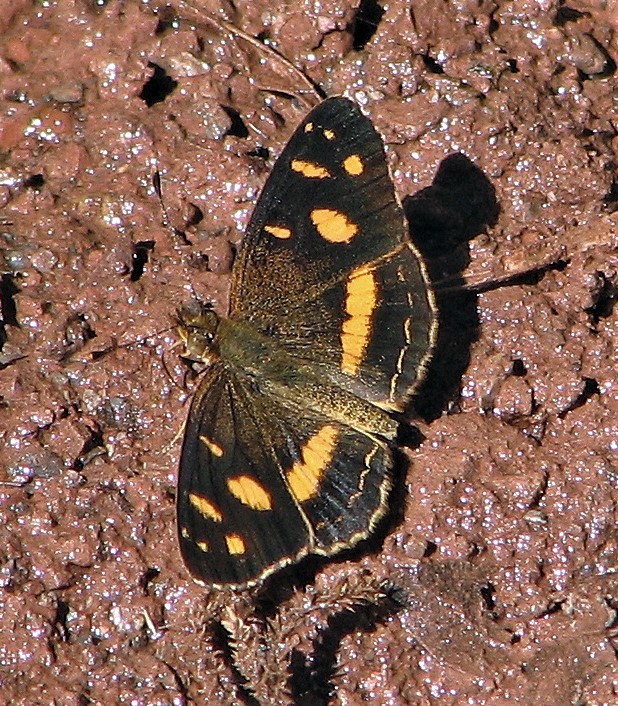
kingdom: Animalia
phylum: Arthropoda
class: Insecta
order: Lepidoptera
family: Nymphalidae
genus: Telenassa
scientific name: Telenassa berenice
